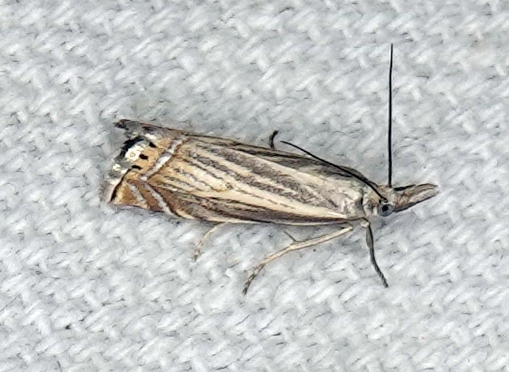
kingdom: Animalia
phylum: Arthropoda
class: Insecta
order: Lepidoptera
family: Crambidae
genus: Chrysoteuchia
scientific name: Chrysoteuchia topiarius
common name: Topiary grass-veneer
